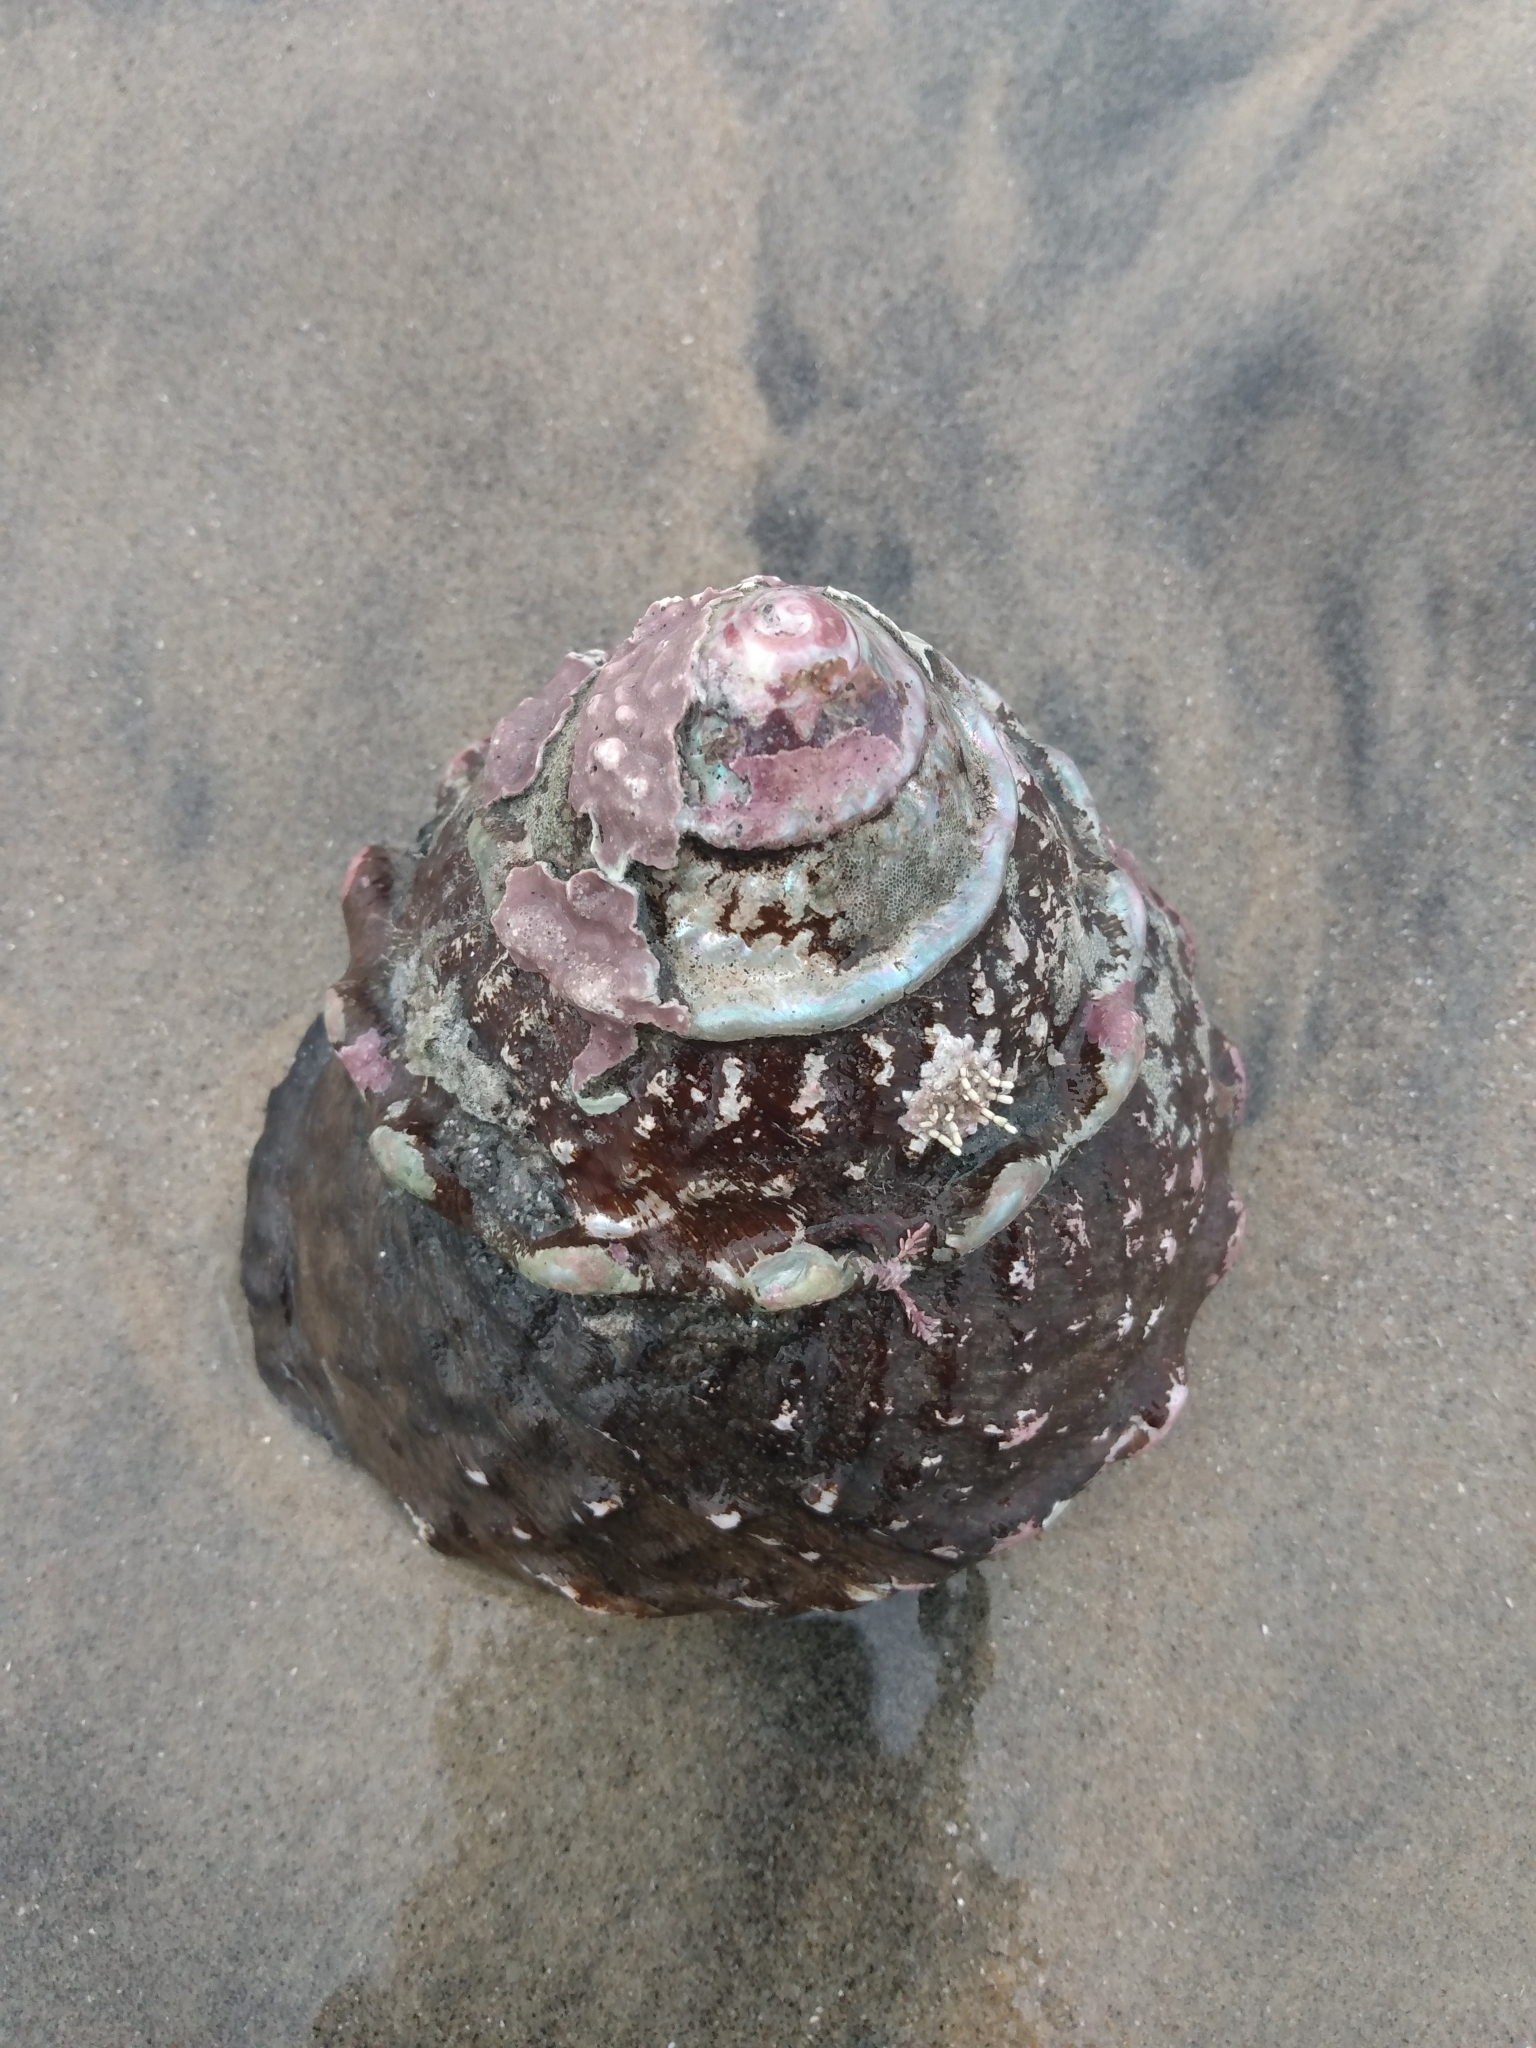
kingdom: Animalia
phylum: Mollusca
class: Gastropoda
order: Trochida
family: Turbinidae
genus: Megastraea
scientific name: Megastraea undosa
